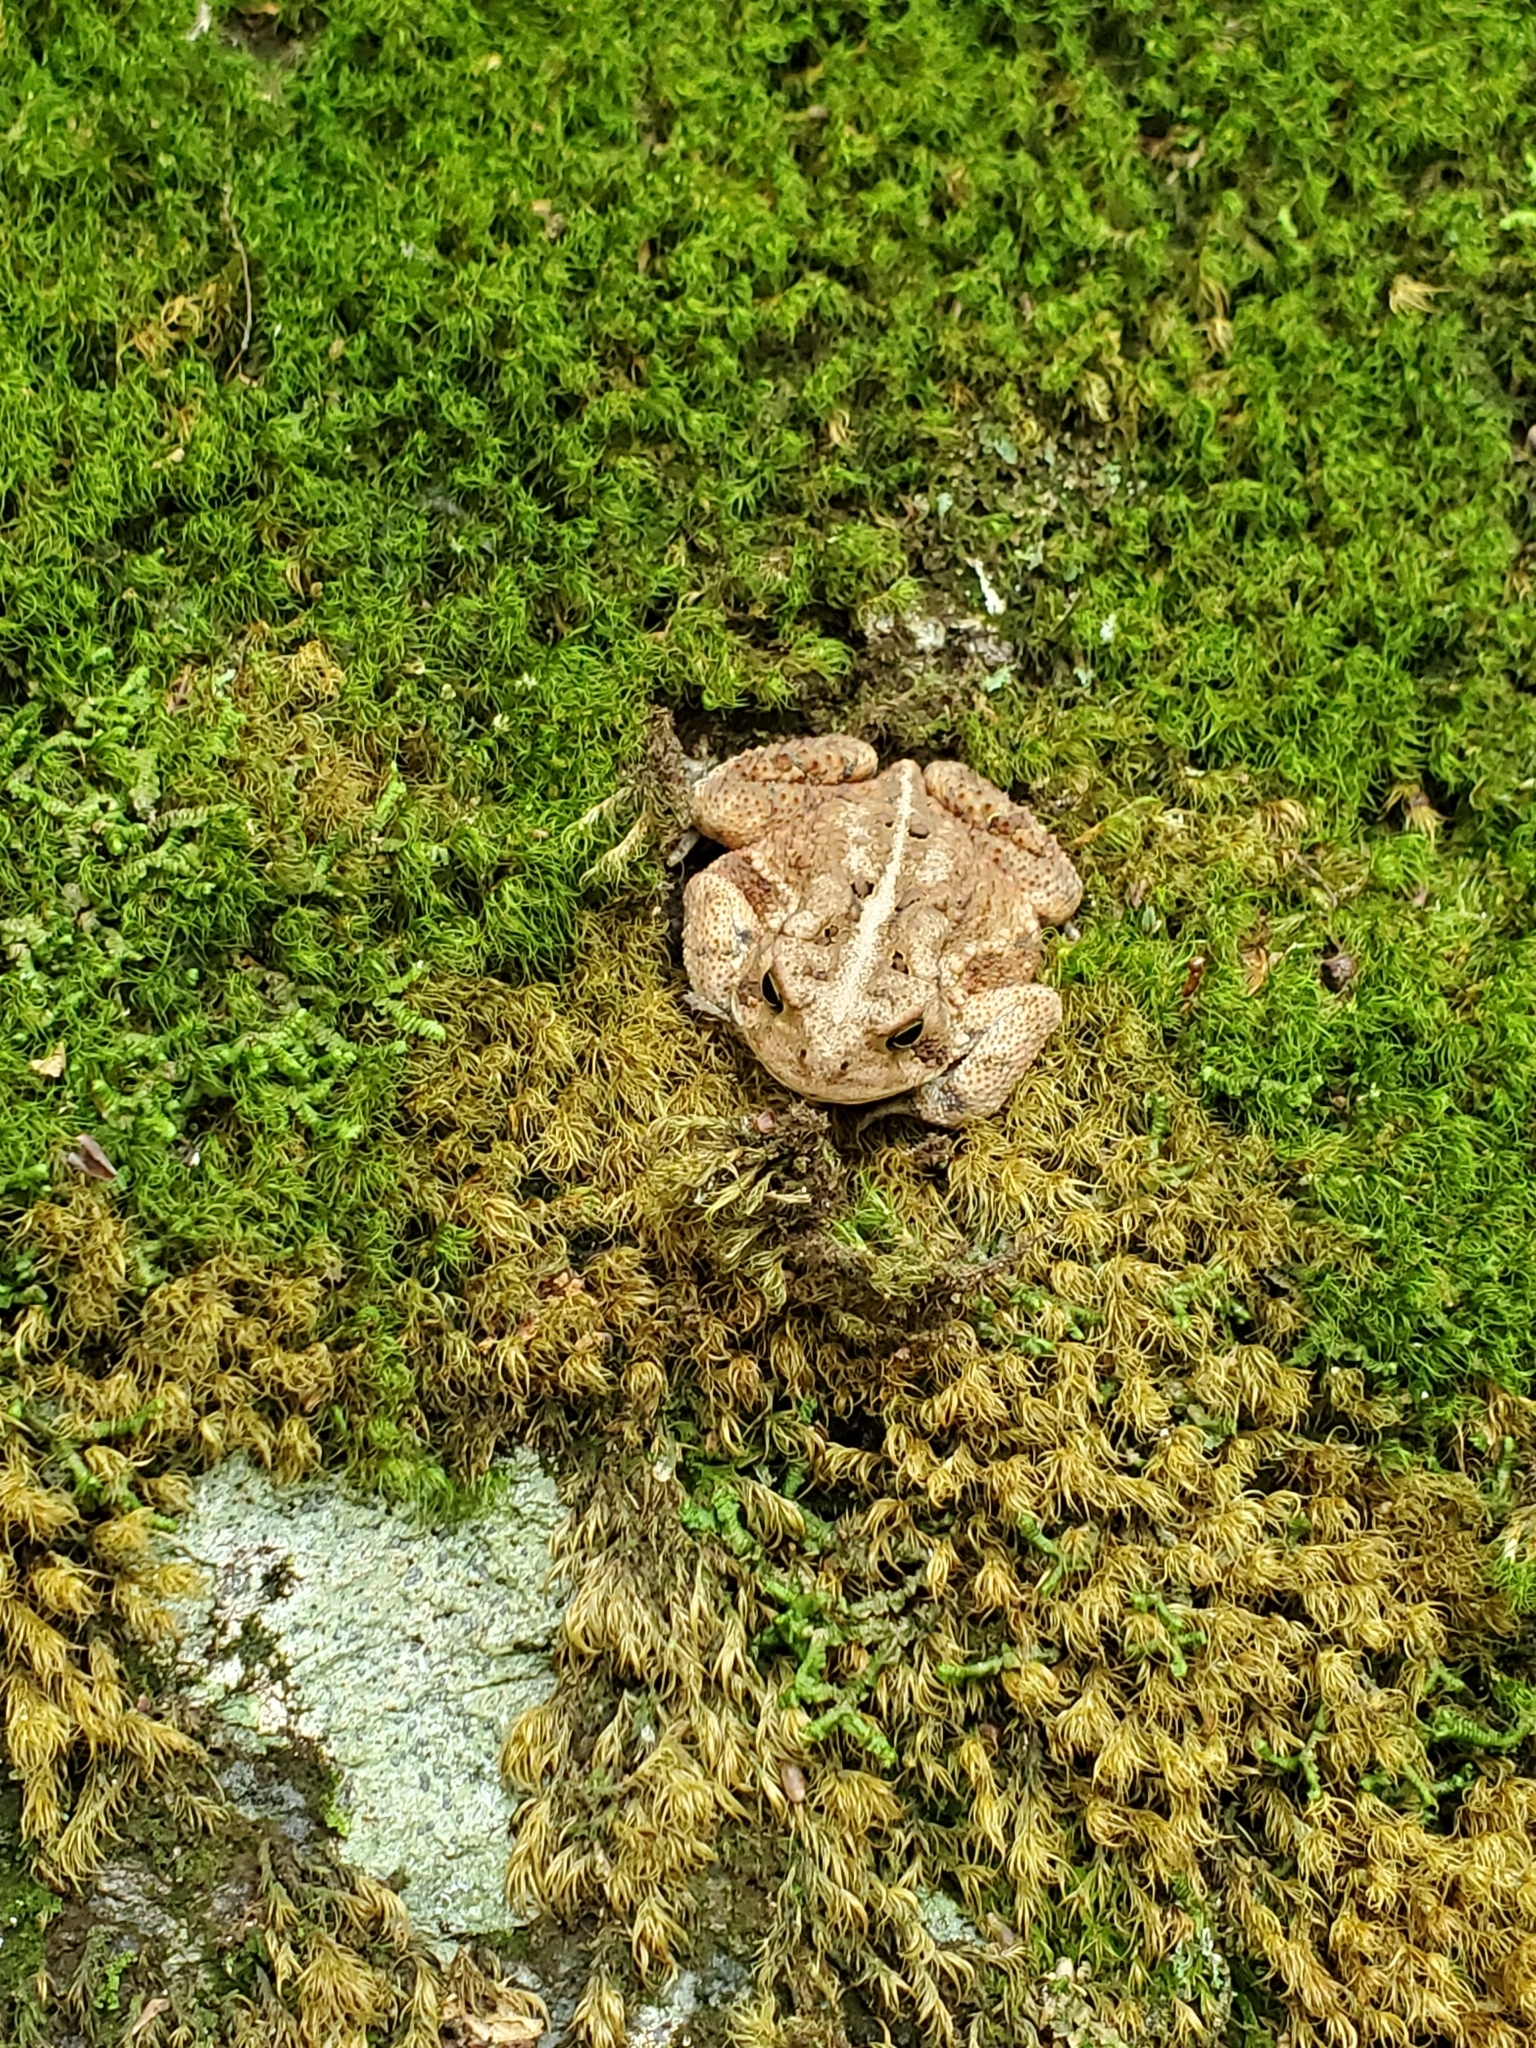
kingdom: Animalia
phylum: Chordata
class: Amphibia
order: Anura
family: Bufonidae
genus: Anaxyrus
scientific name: Anaxyrus americanus
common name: American toad
